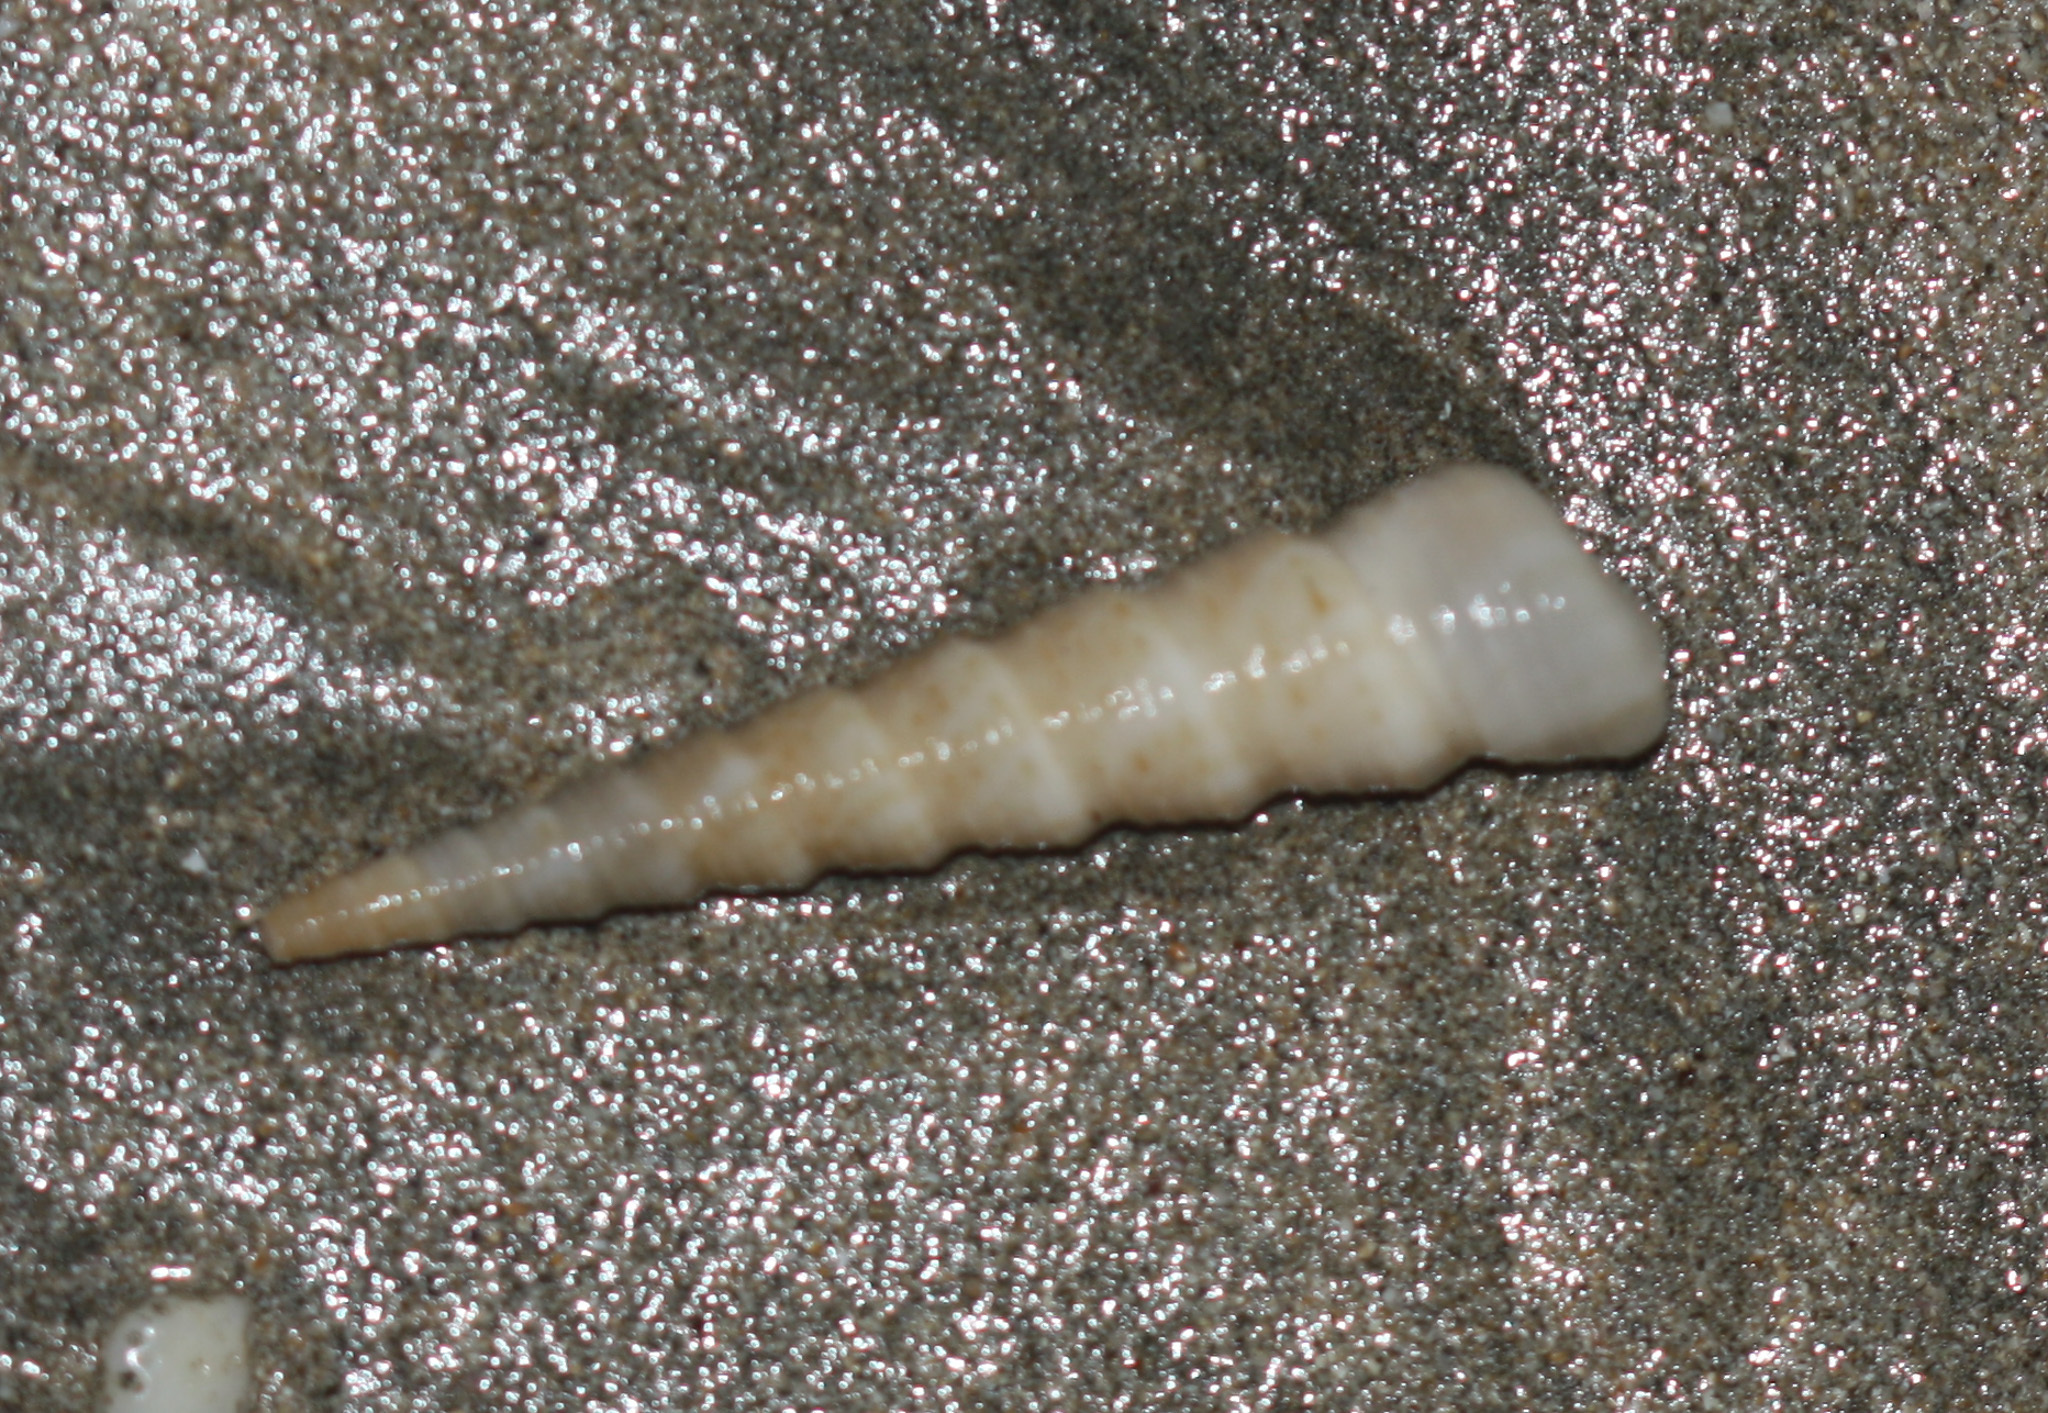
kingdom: Animalia
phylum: Mollusca
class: Gastropoda
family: Turritellidae
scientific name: Turritellidae
